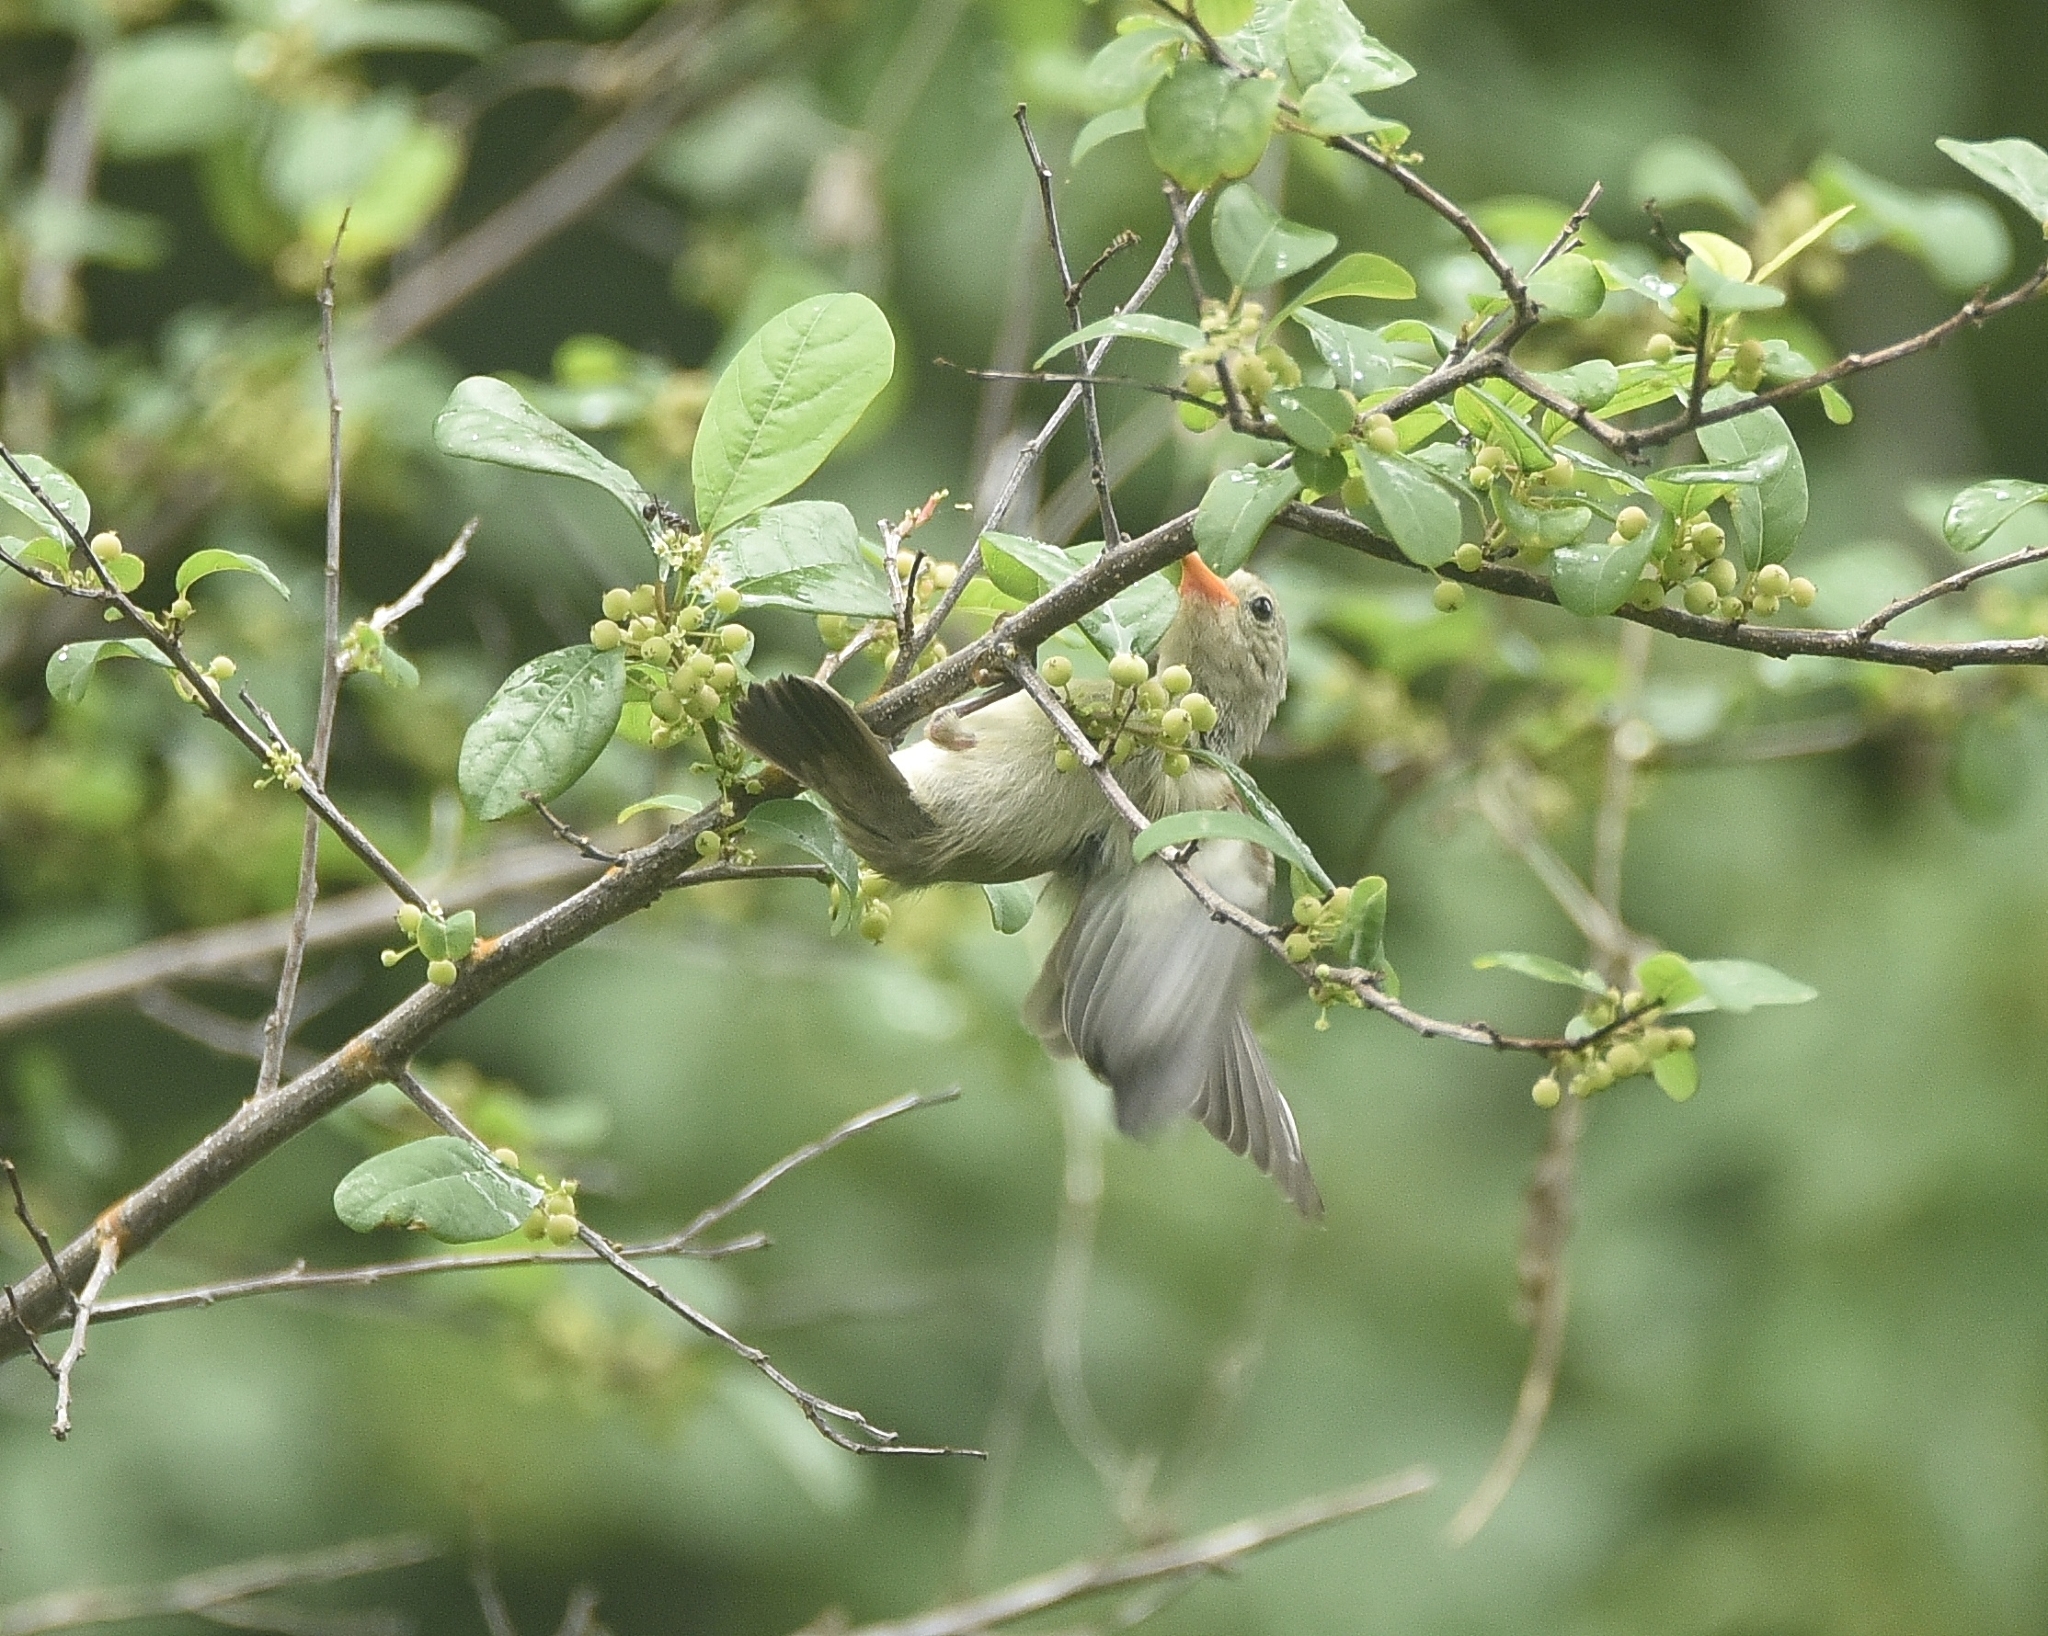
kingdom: Animalia
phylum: Chordata
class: Aves
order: Passeriformes
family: Dicaeidae
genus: Dicaeum
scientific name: Dicaeum erythrorhynchos
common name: Pale-billed flowerpecker
